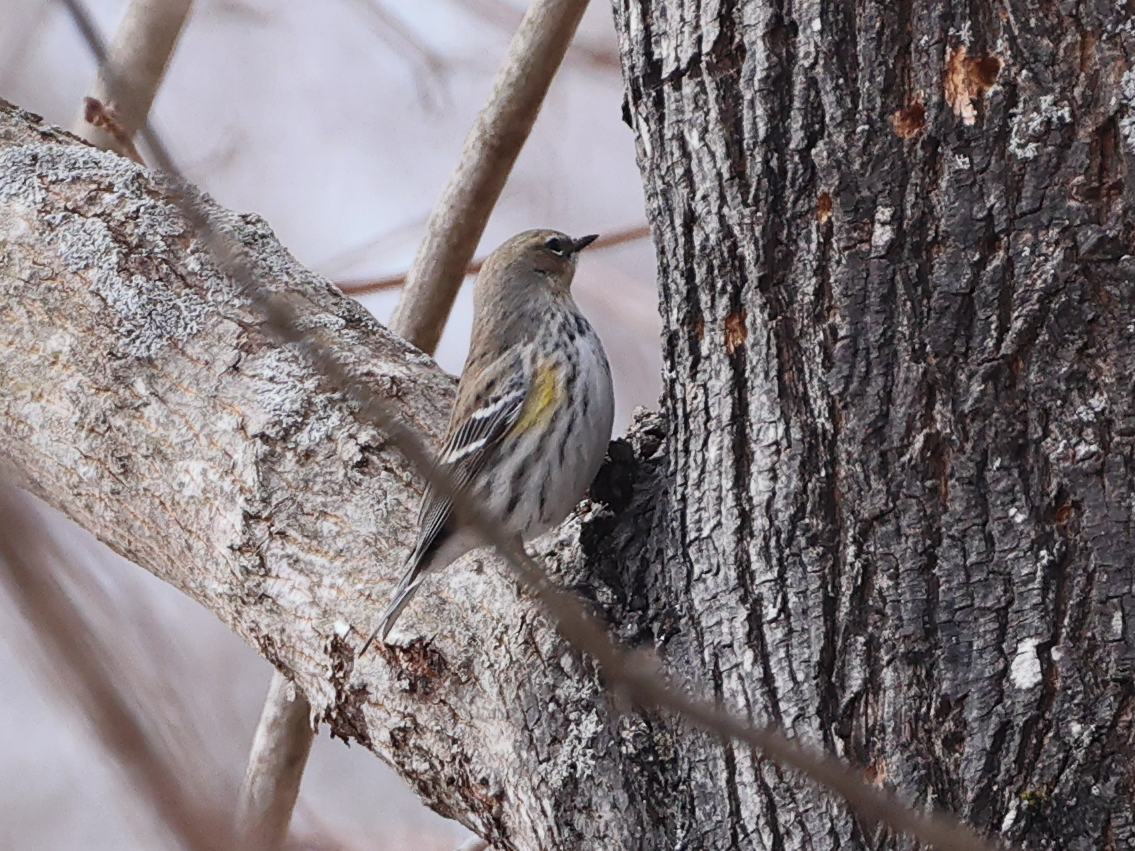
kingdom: Animalia
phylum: Chordata
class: Aves
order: Passeriformes
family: Parulidae
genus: Setophaga
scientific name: Setophaga coronata
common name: Myrtle warbler
